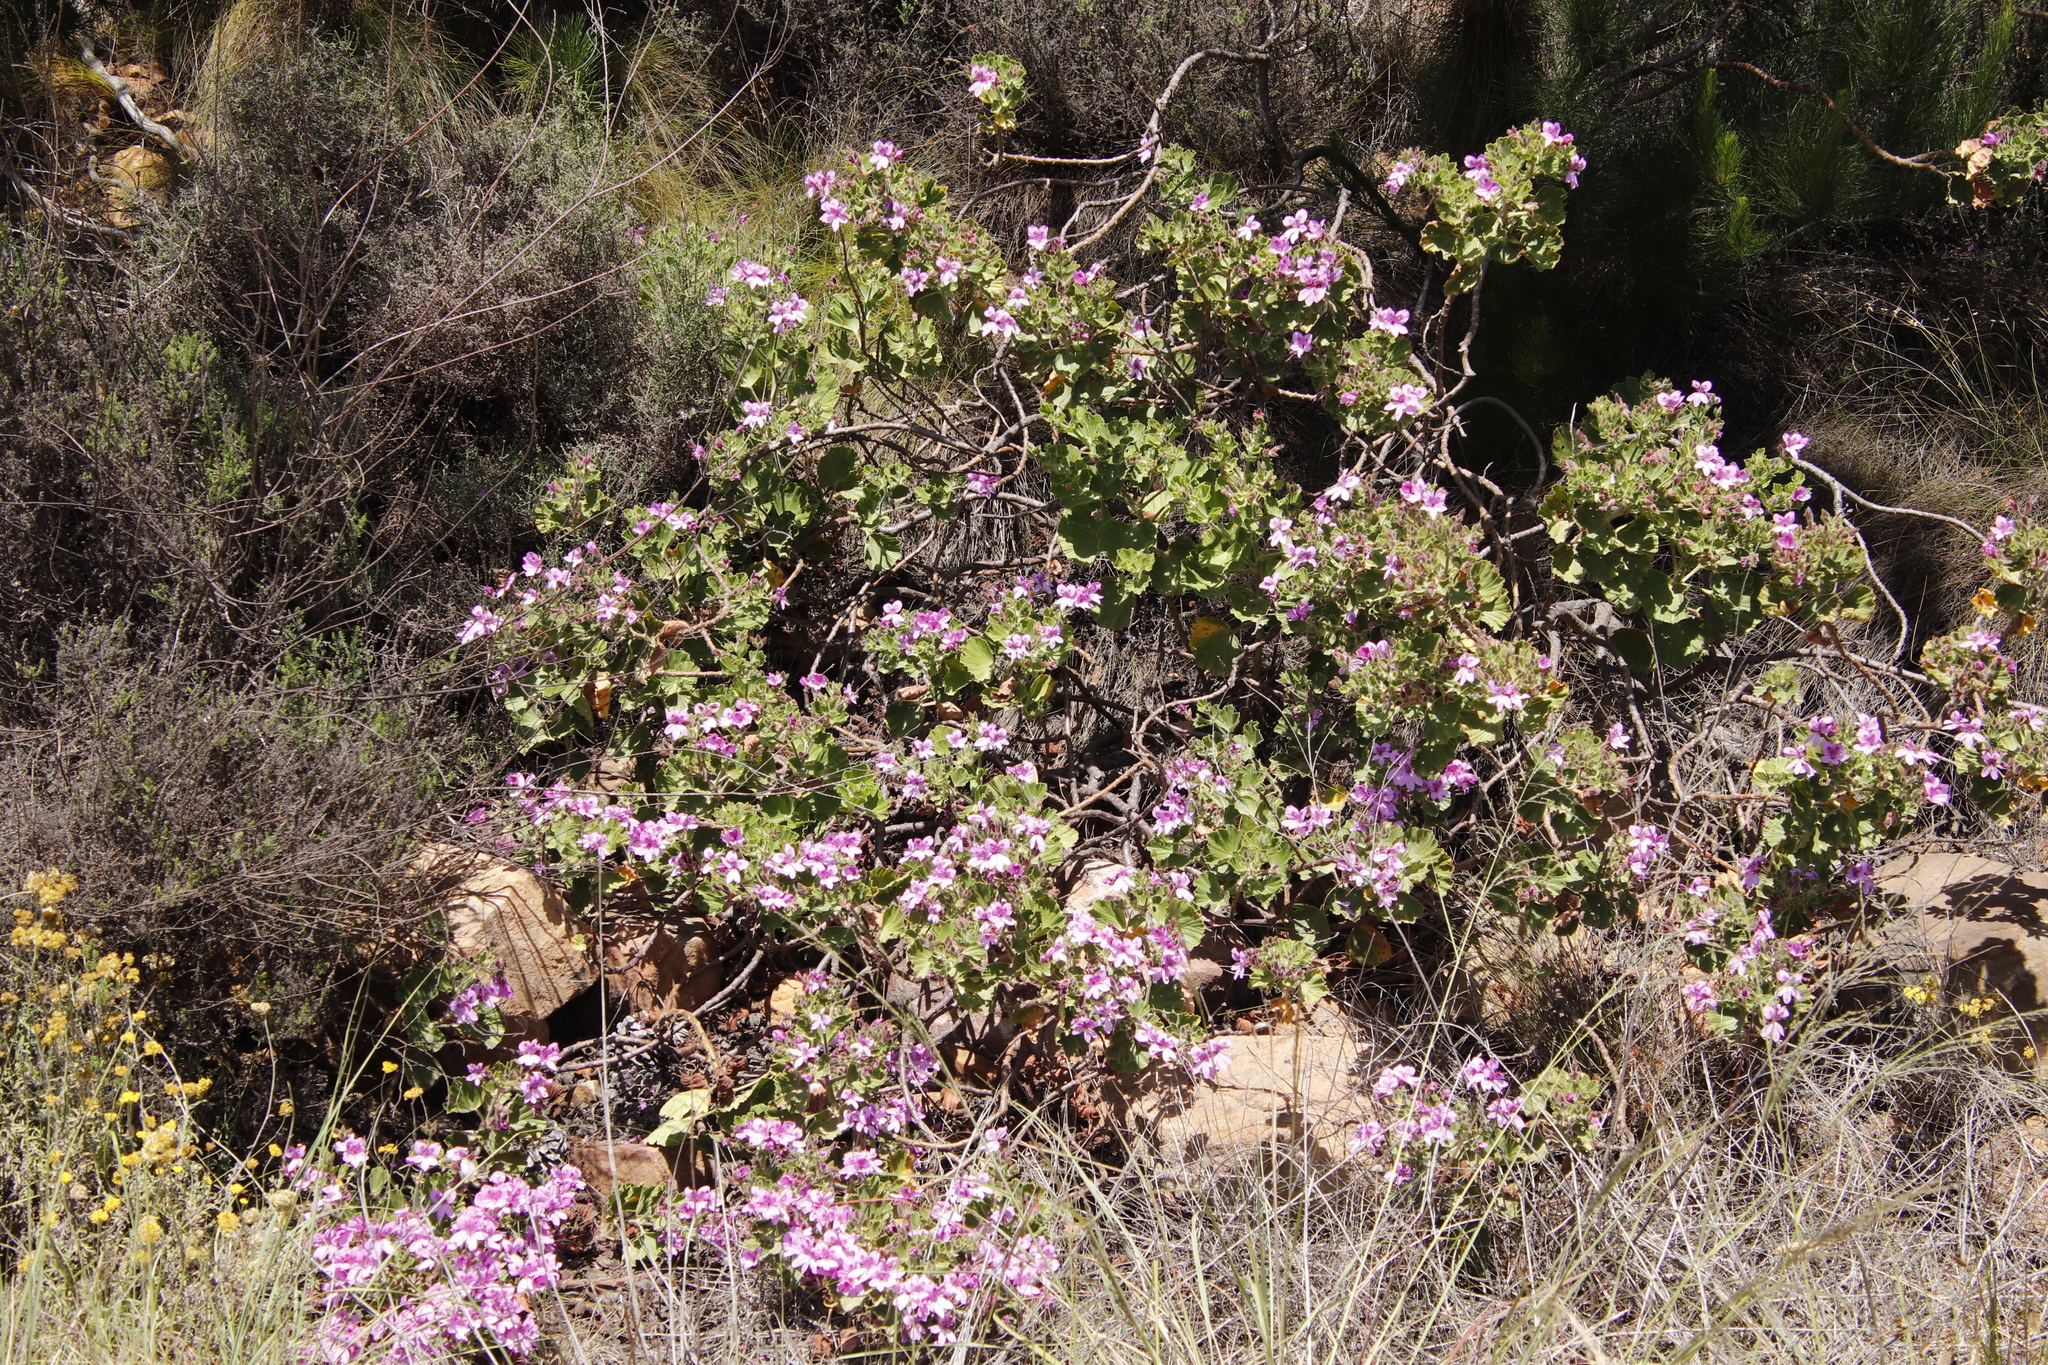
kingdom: Plantae
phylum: Tracheophyta
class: Magnoliopsida
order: Geraniales
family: Geraniaceae
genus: Pelargonium
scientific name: Pelargonium cucullatum
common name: Tree pelargonium
